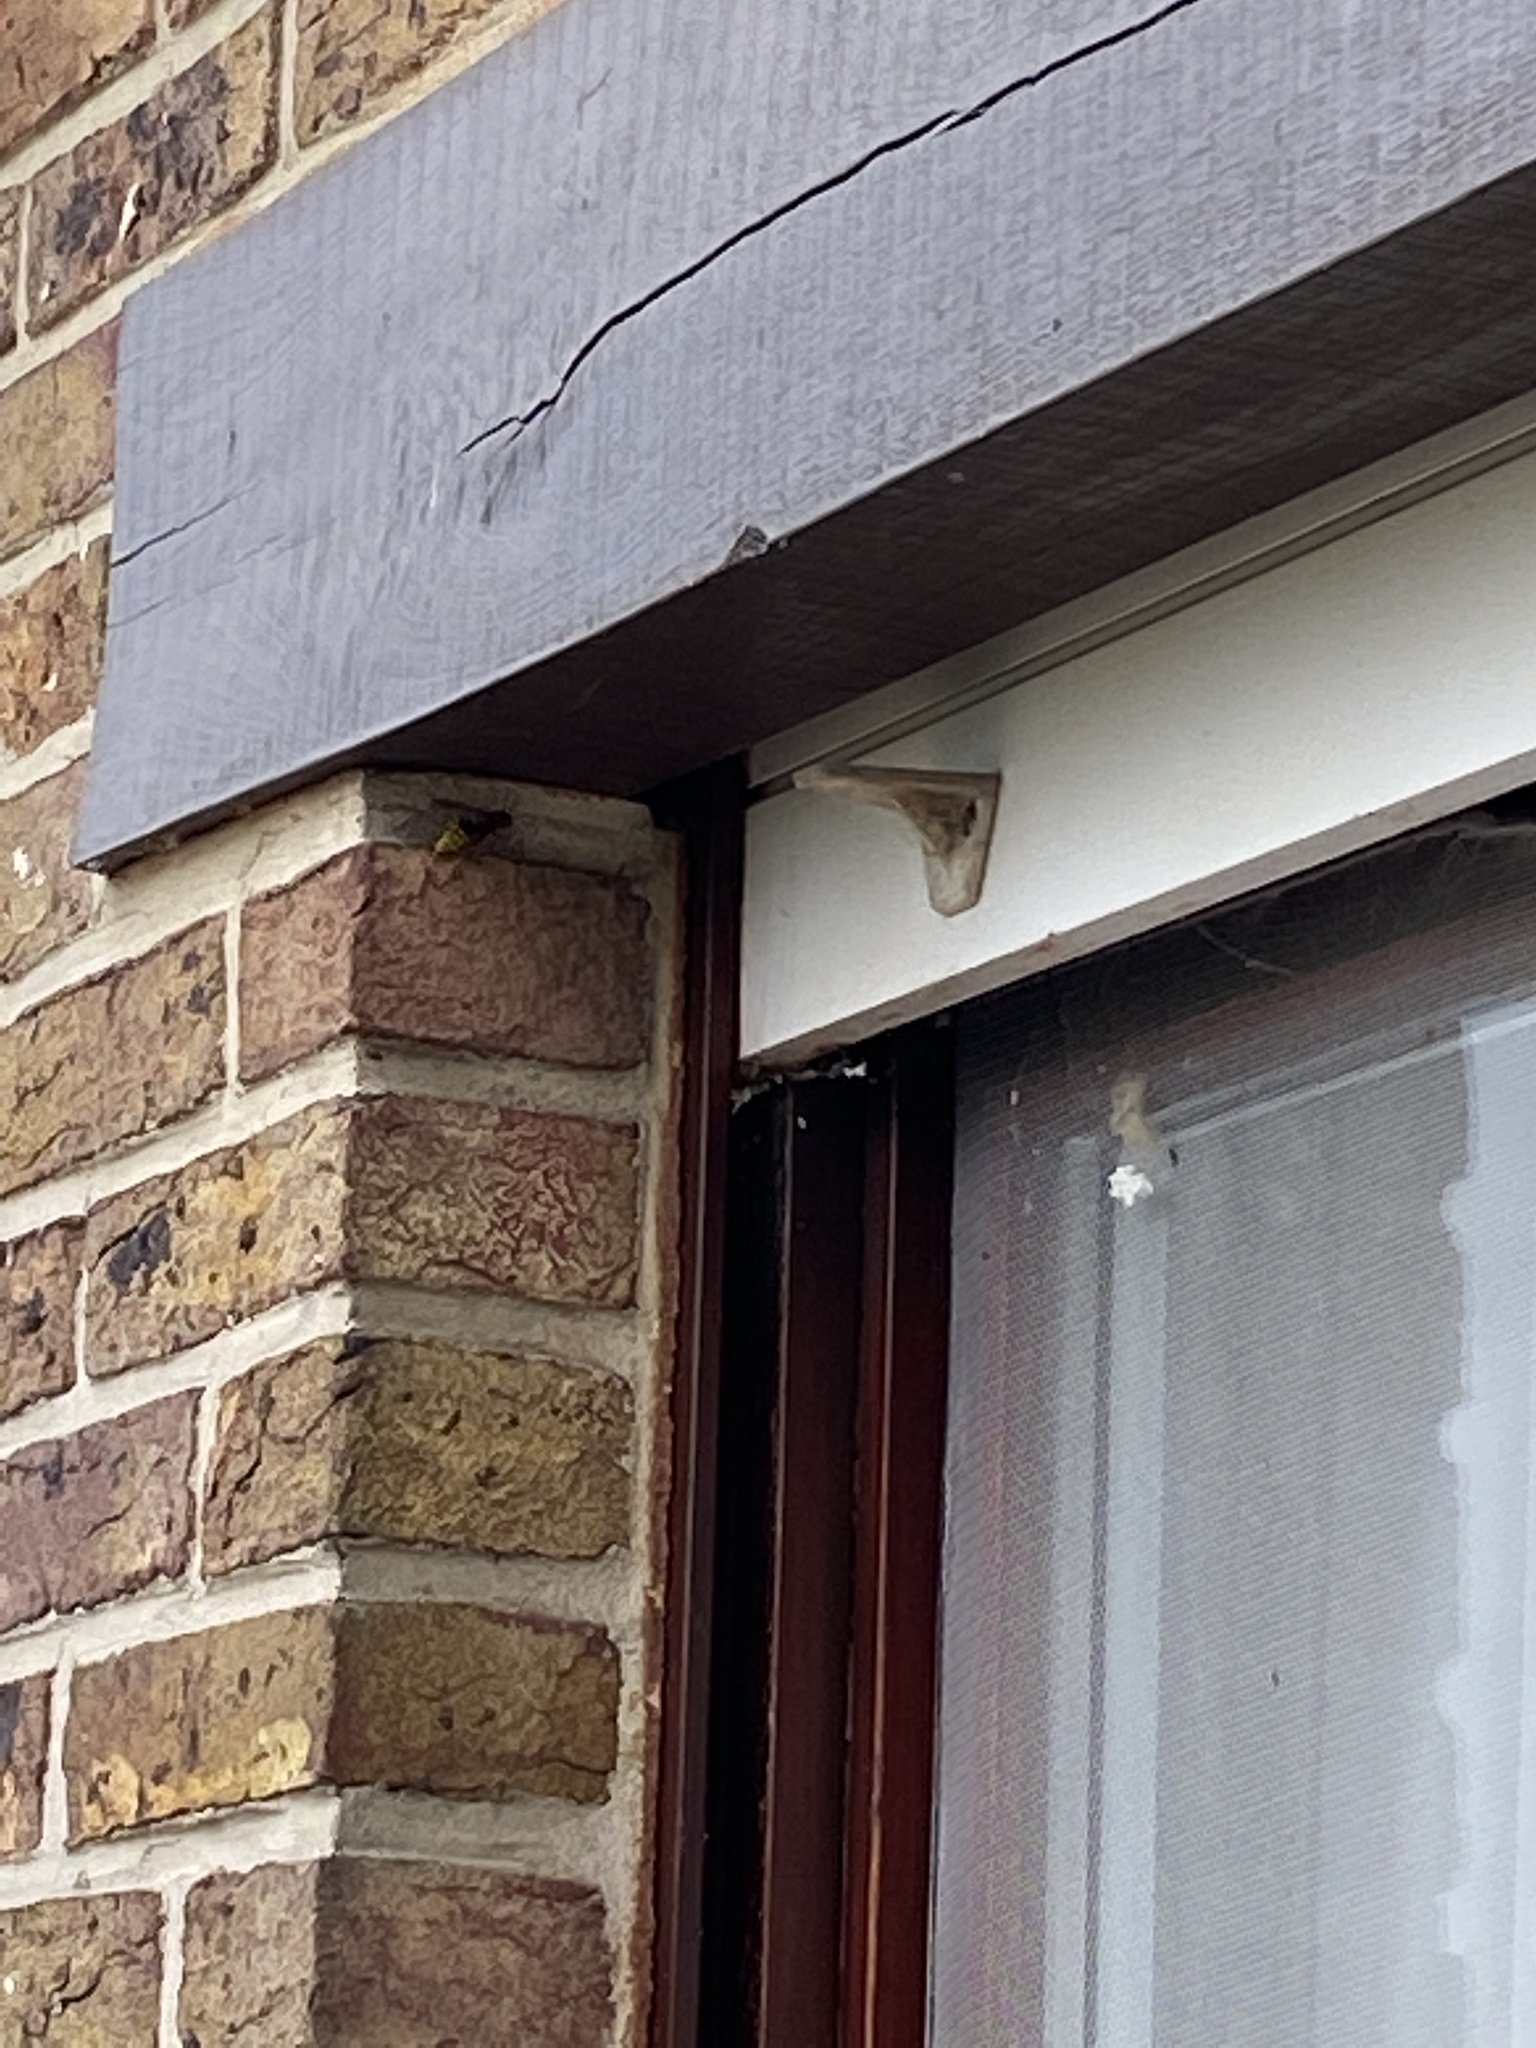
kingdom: Animalia
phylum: Arthropoda
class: Insecta
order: Hymenoptera
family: Vespidae
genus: Vespa
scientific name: Vespa crabro
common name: Hornet
